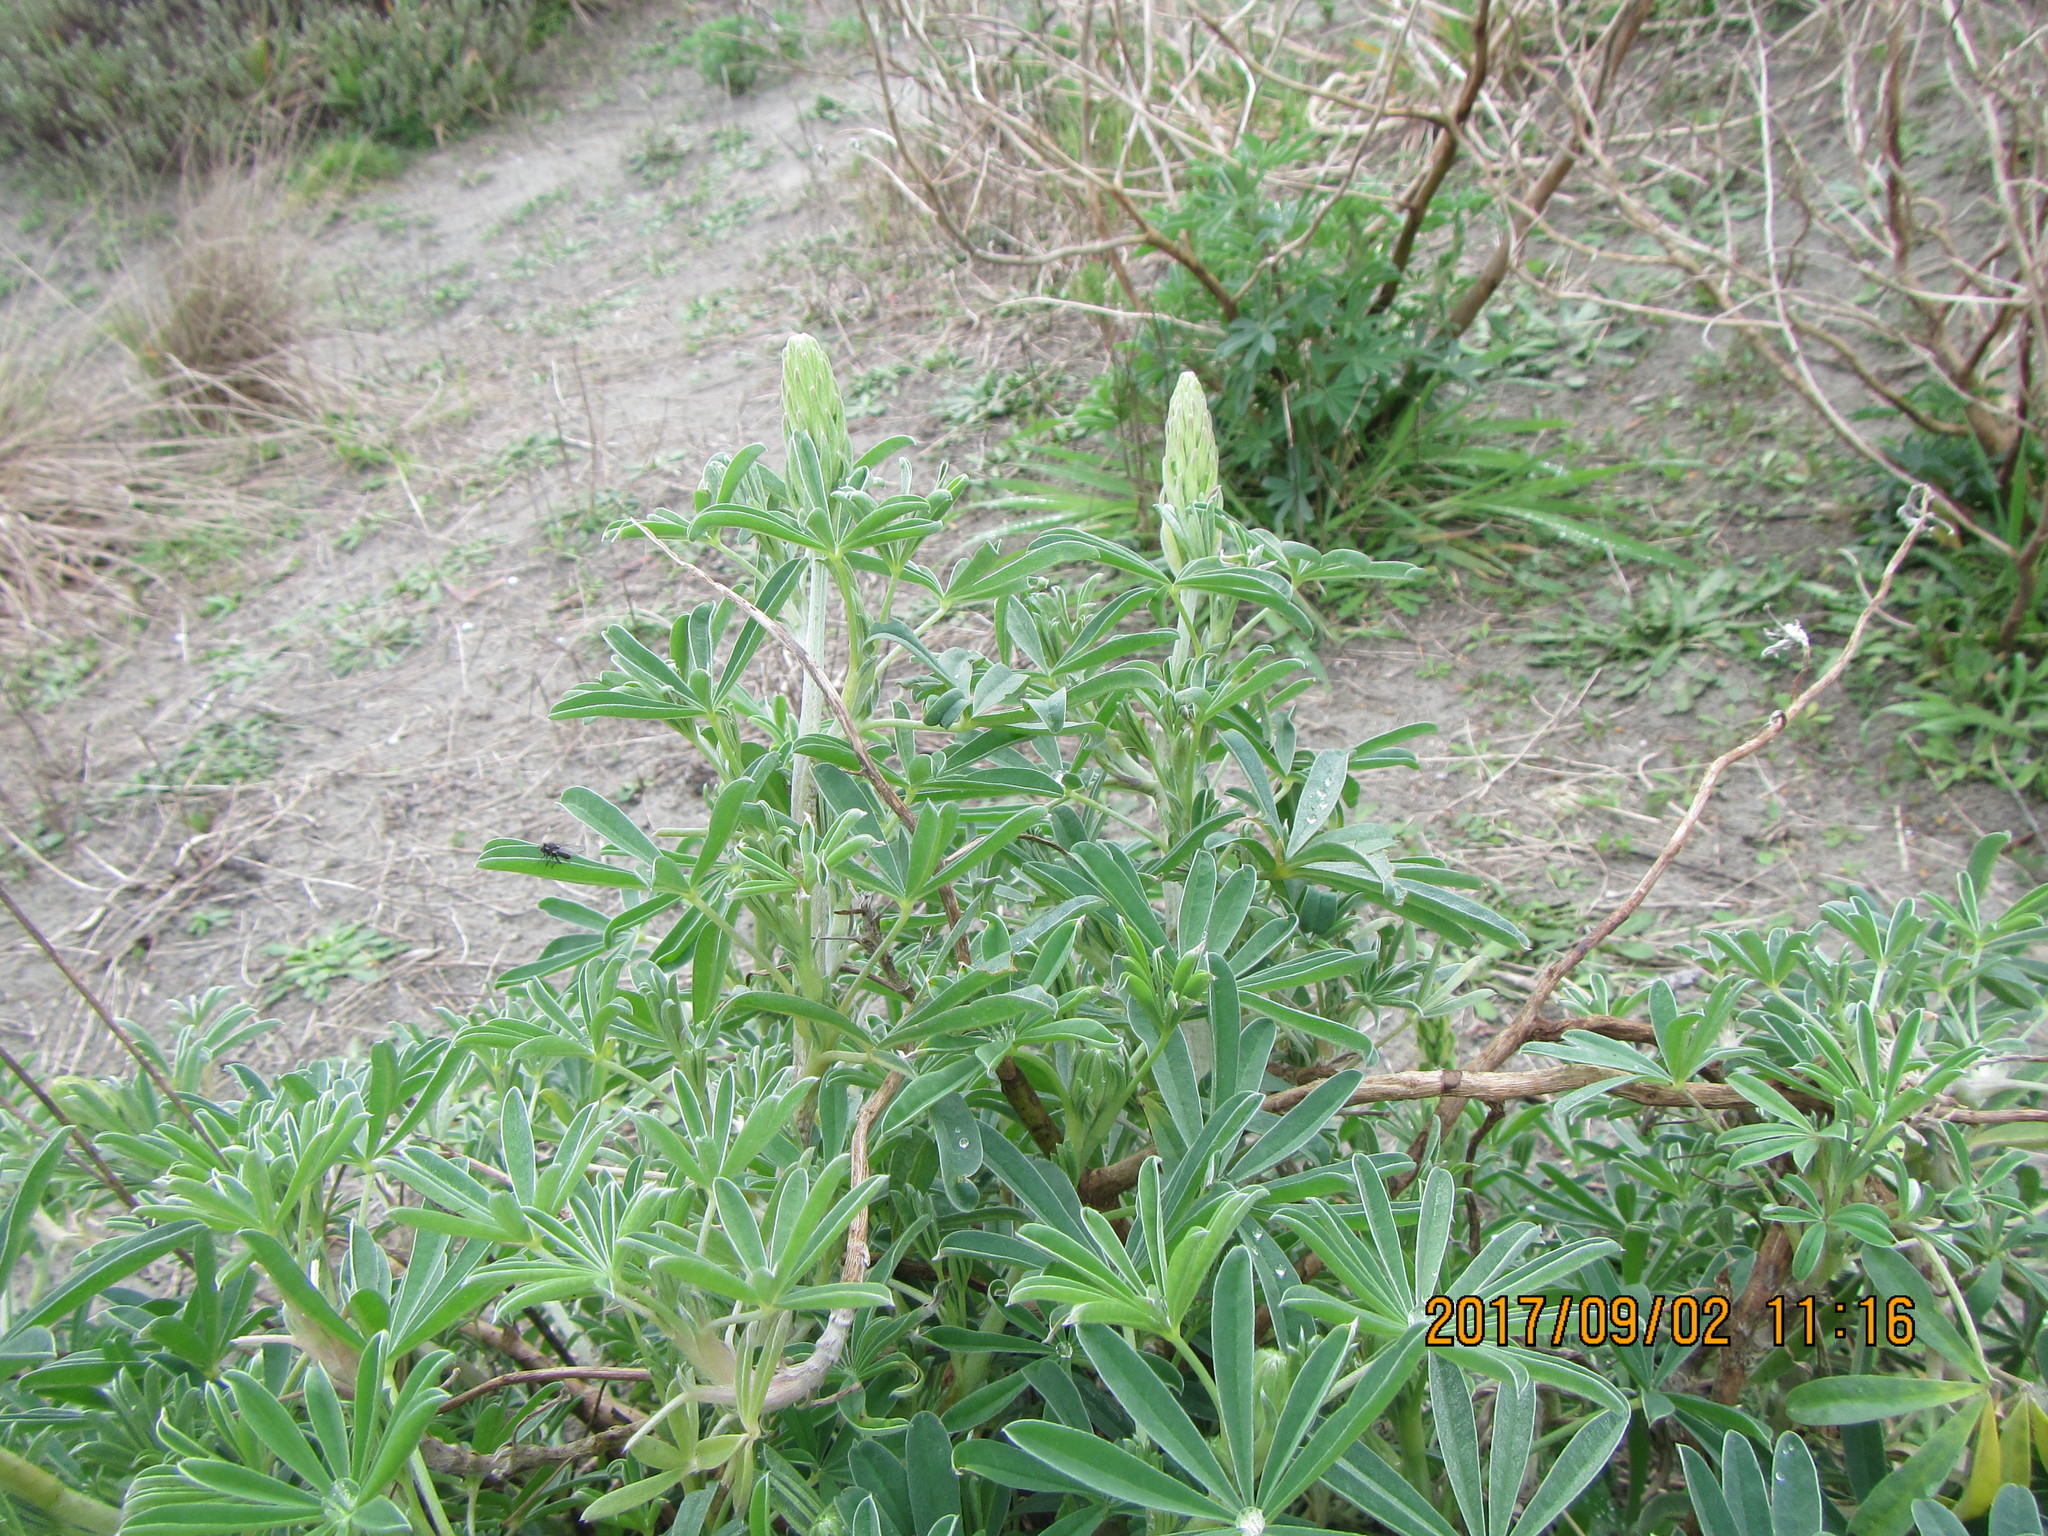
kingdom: Plantae
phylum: Tracheophyta
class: Magnoliopsida
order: Fabales
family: Fabaceae
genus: Lupinus
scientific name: Lupinus arboreus
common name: Yellow bush lupine
